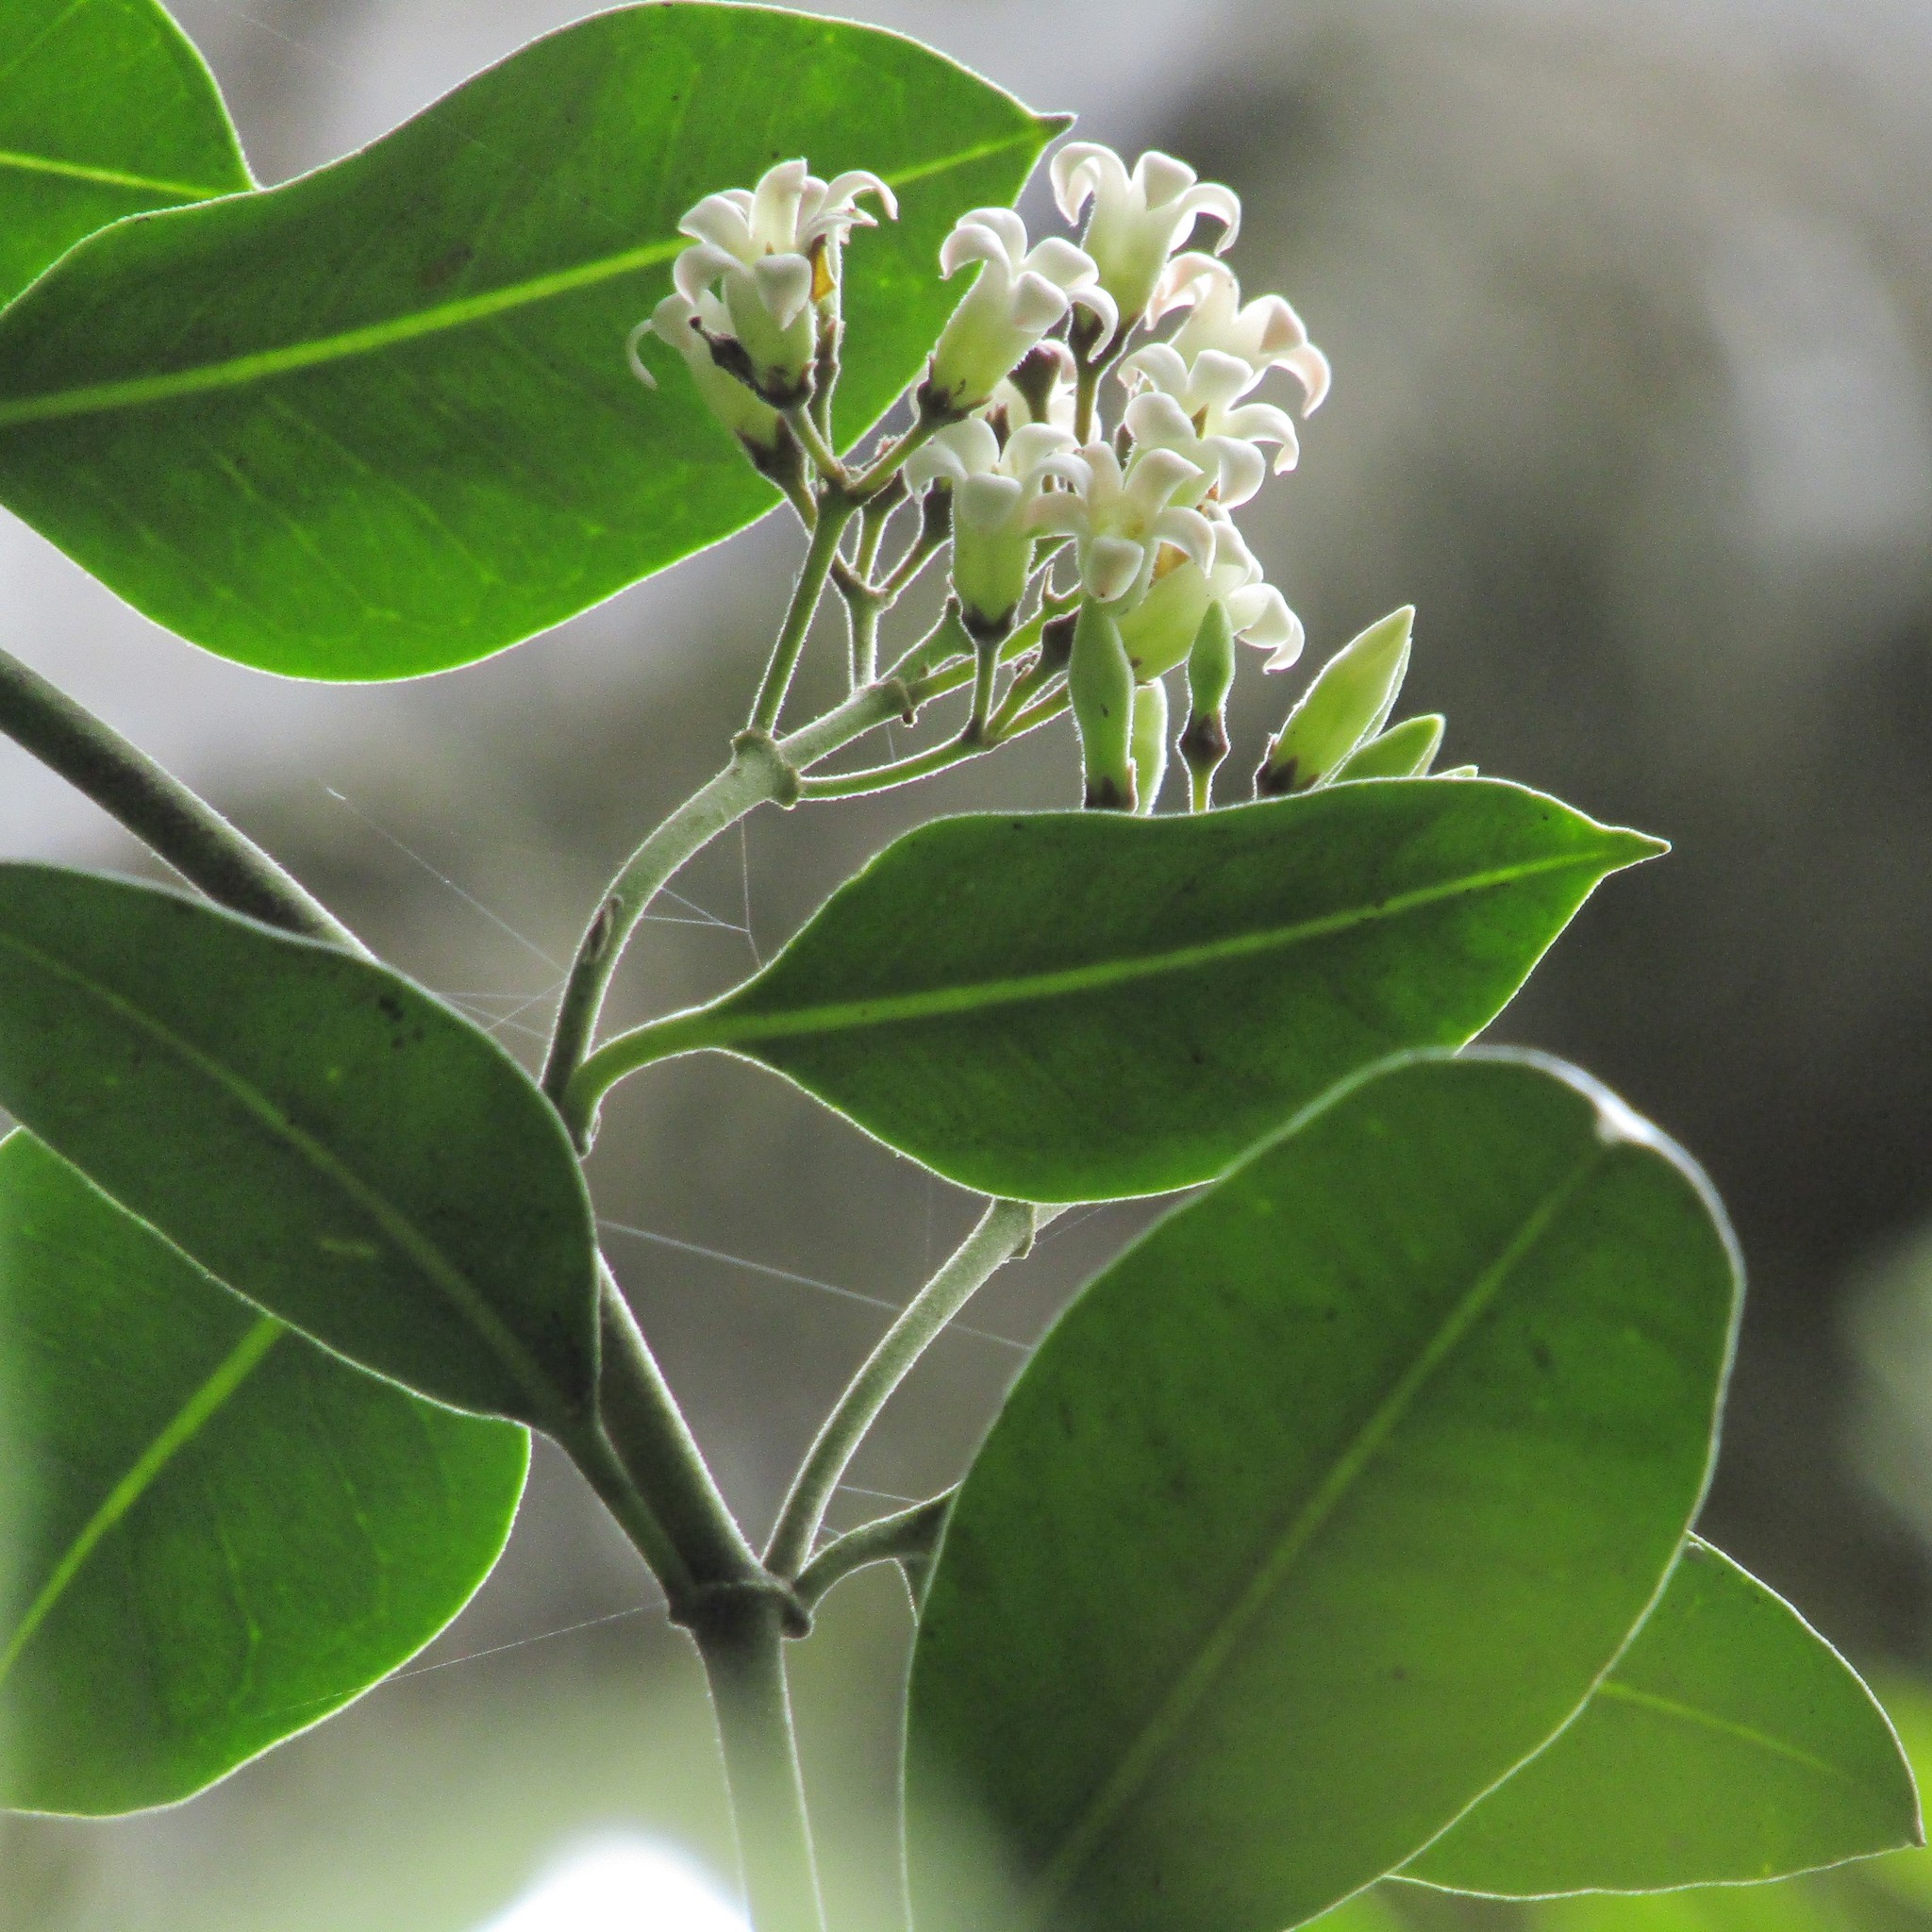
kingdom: Plantae
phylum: Tracheophyta
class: Magnoliopsida
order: Gentianales
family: Apocynaceae
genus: Parsonsia
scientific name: Parsonsia heterophylla
